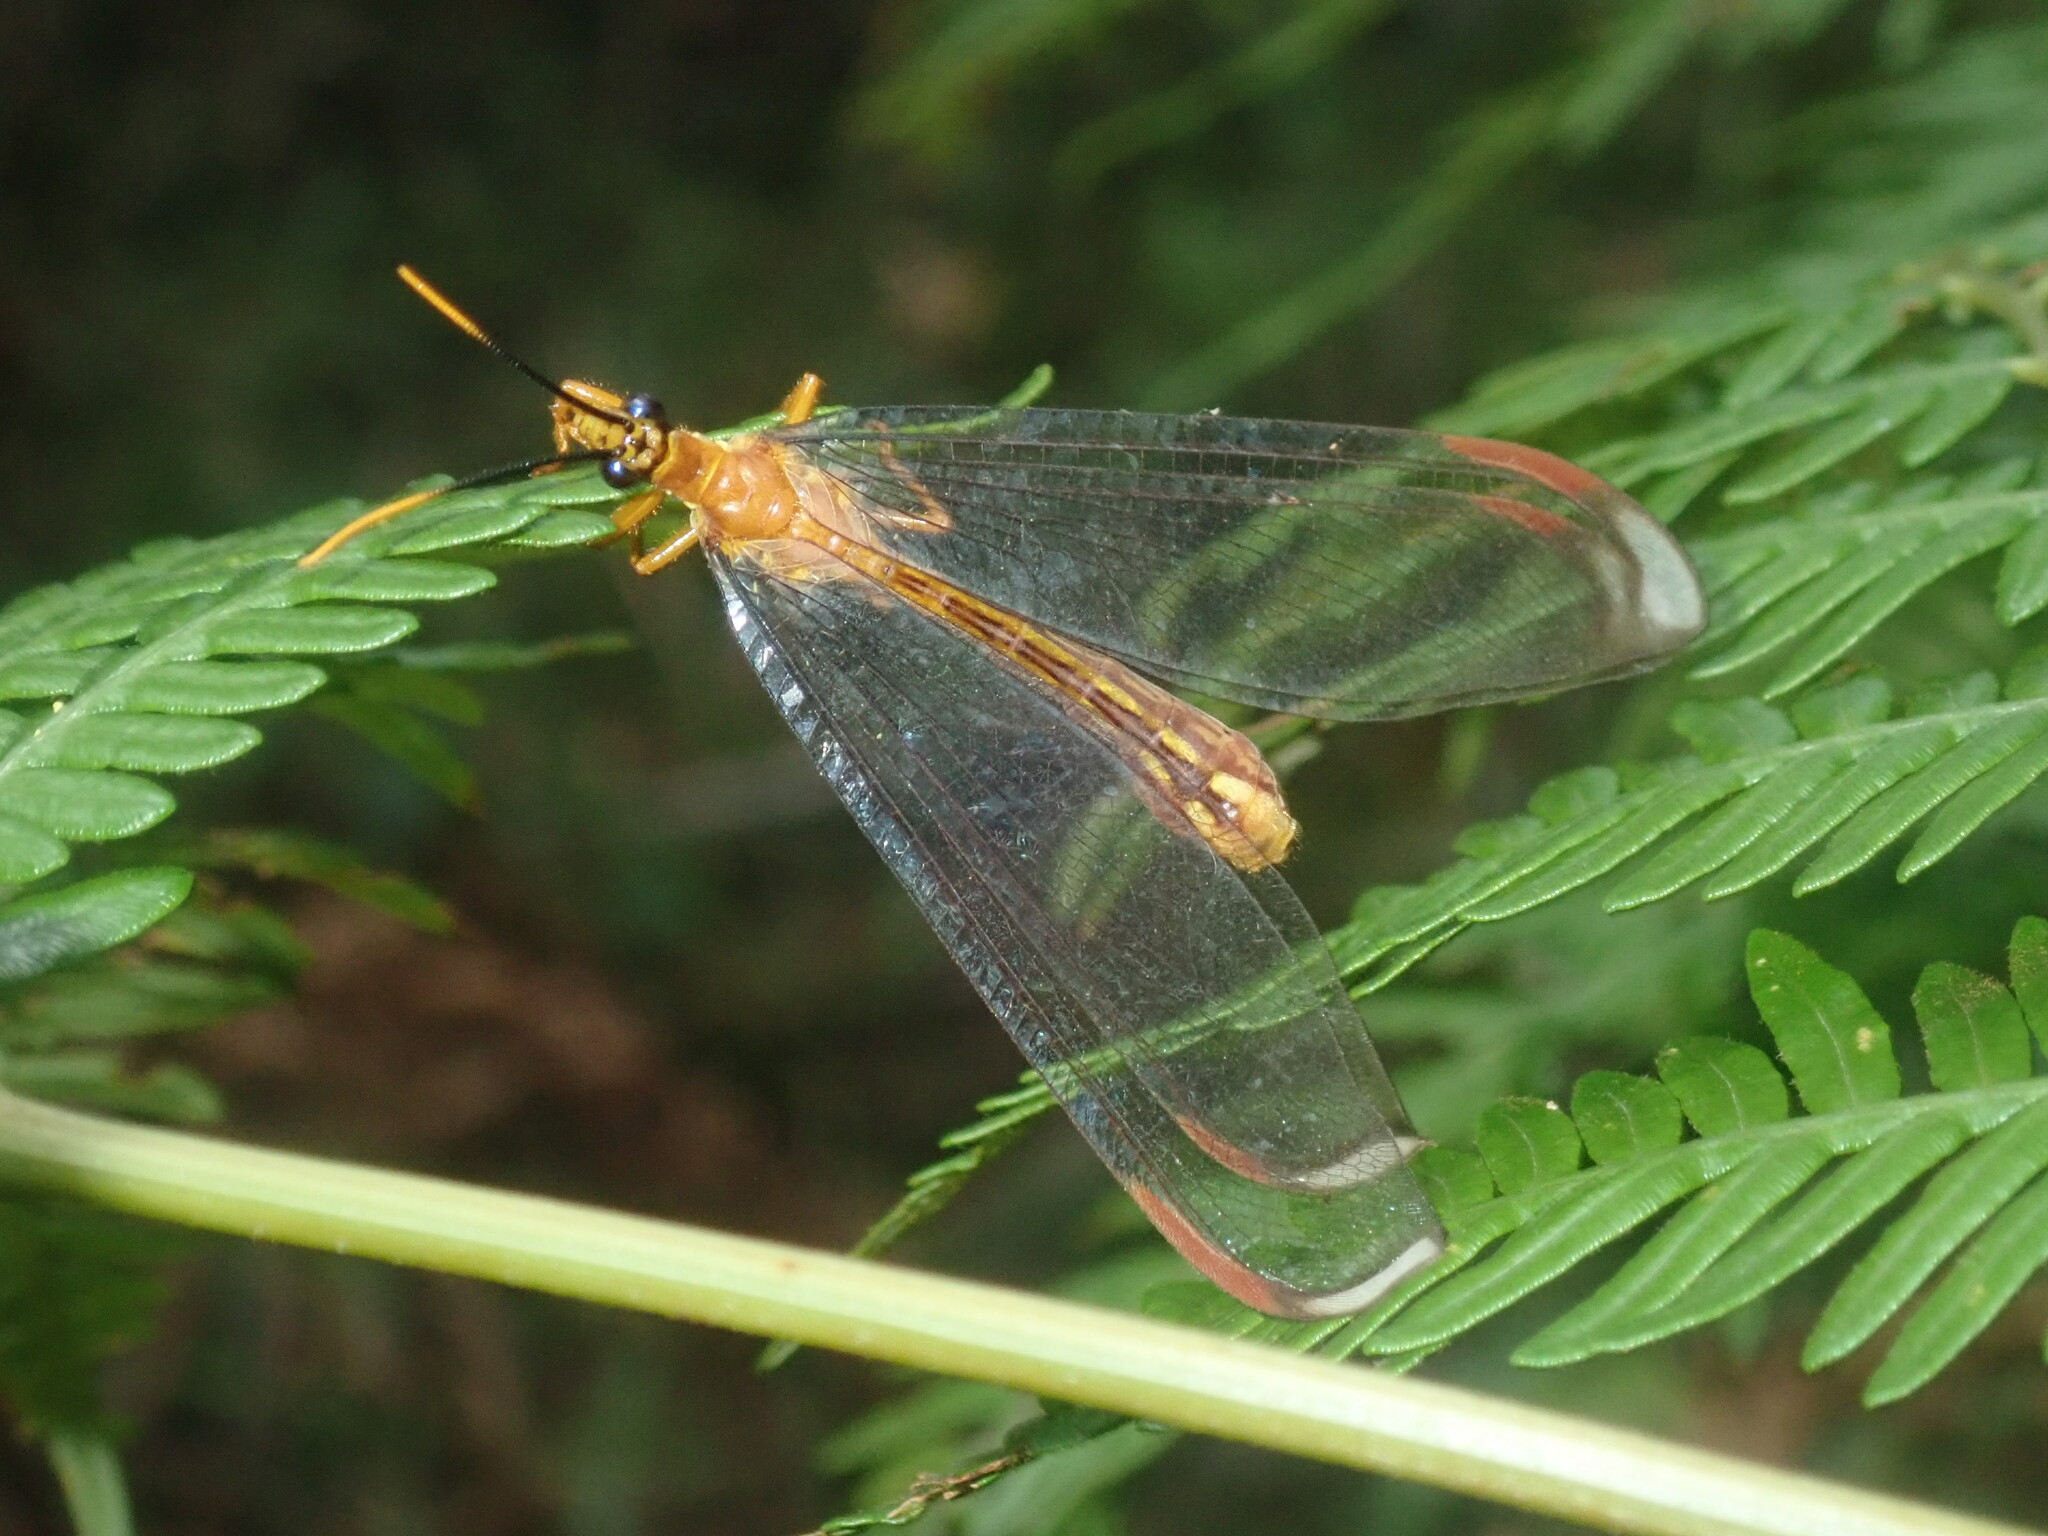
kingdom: Animalia
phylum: Arthropoda
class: Insecta
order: Neuroptera
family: Nymphidae
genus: Nymphes
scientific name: Nymphes myrmeleonoides
